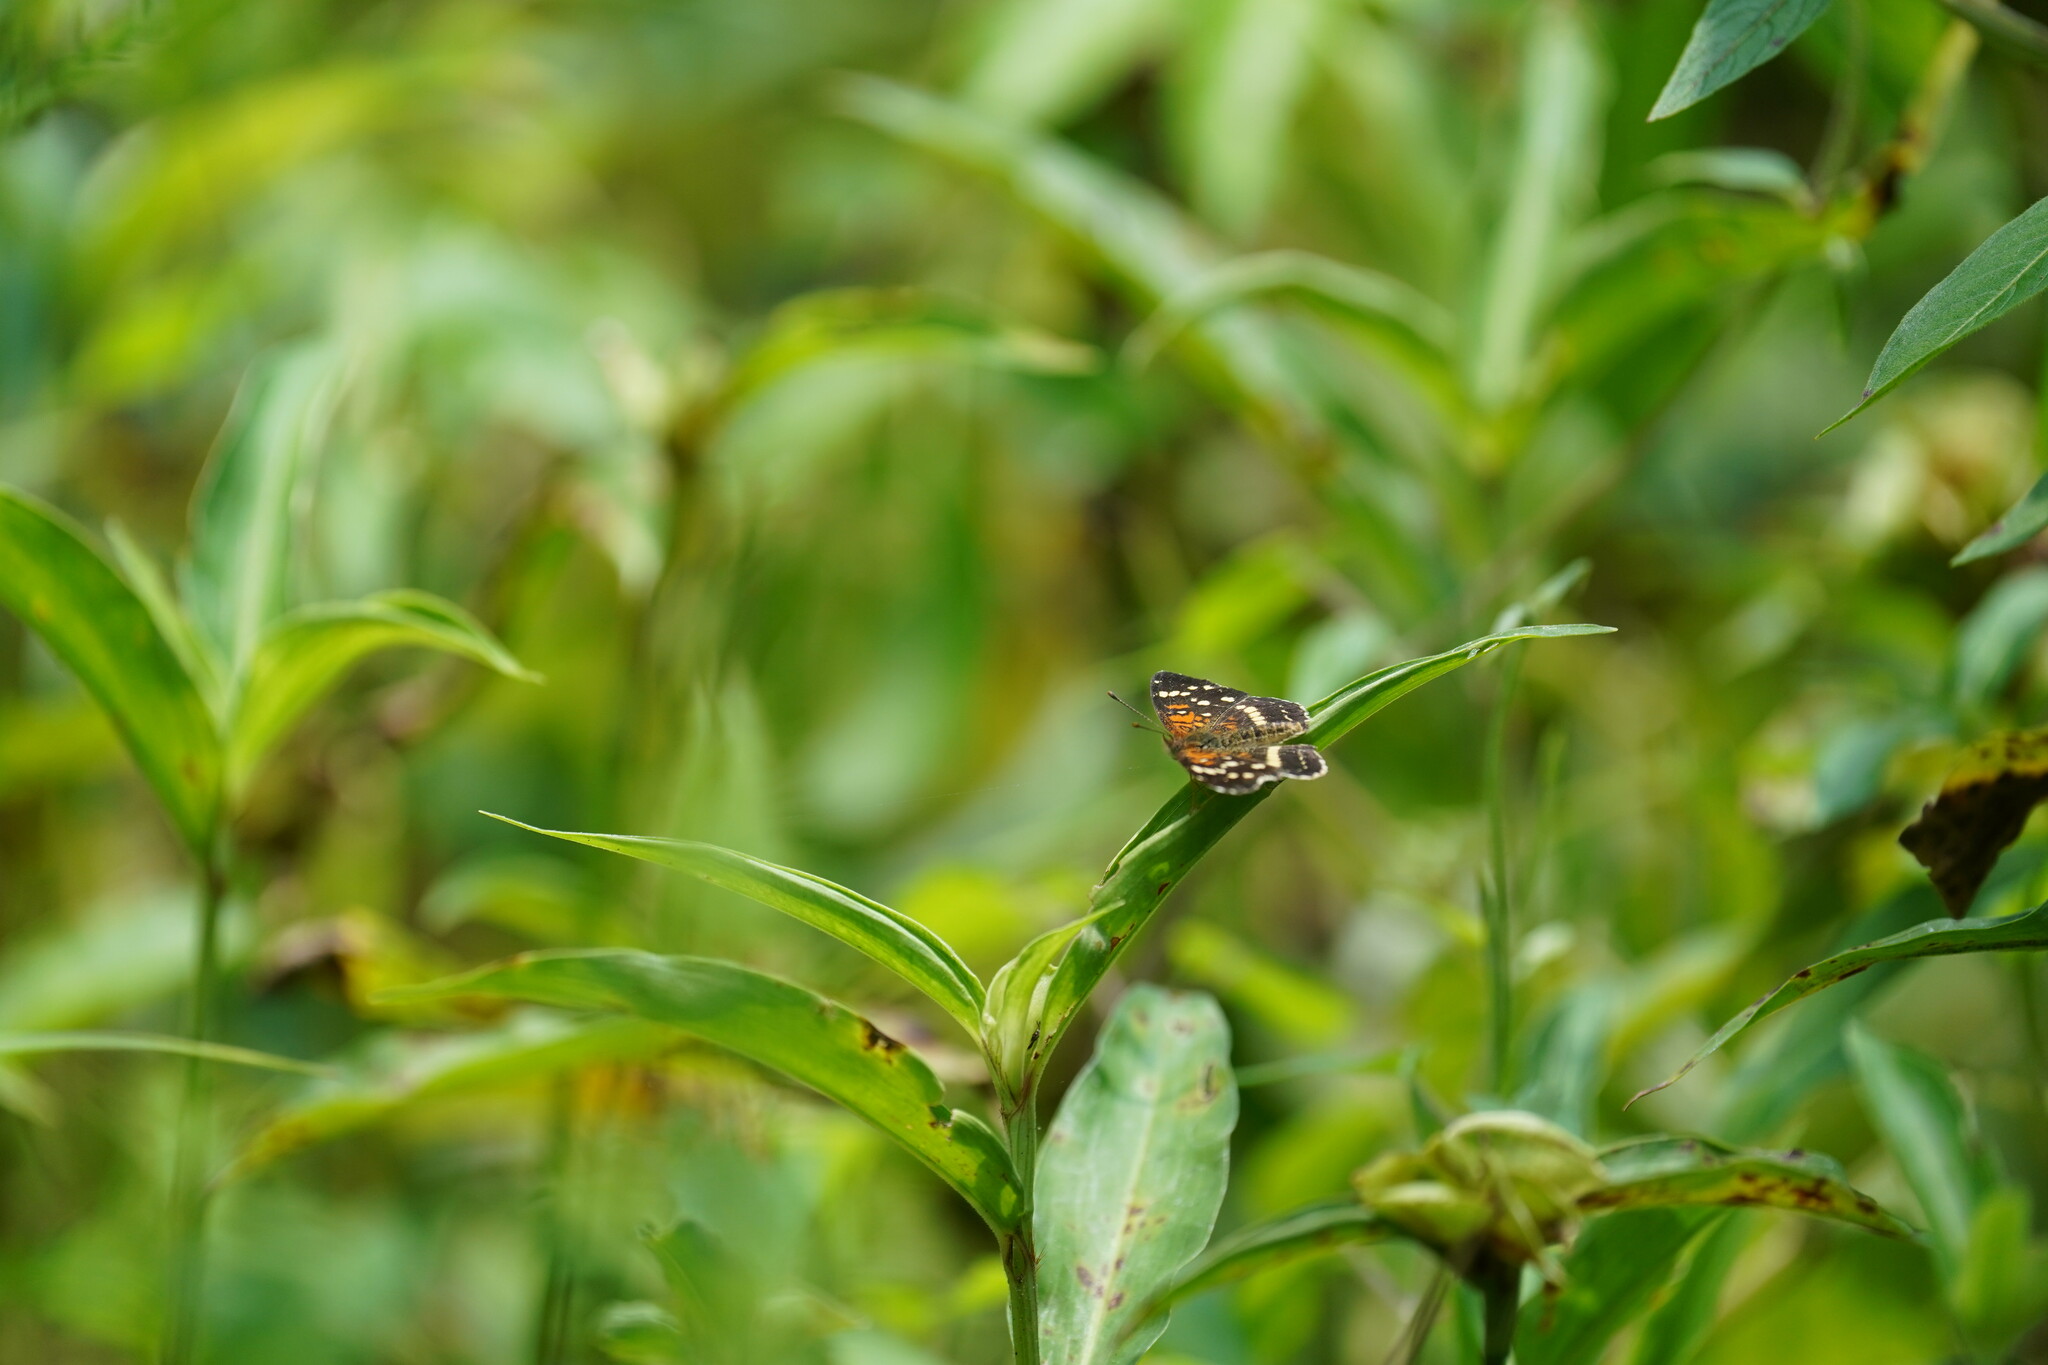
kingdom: Animalia
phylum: Arthropoda
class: Insecta
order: Lepidoptera
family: Nymphalidae
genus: Anthanassa
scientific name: Anthanassa taxana
